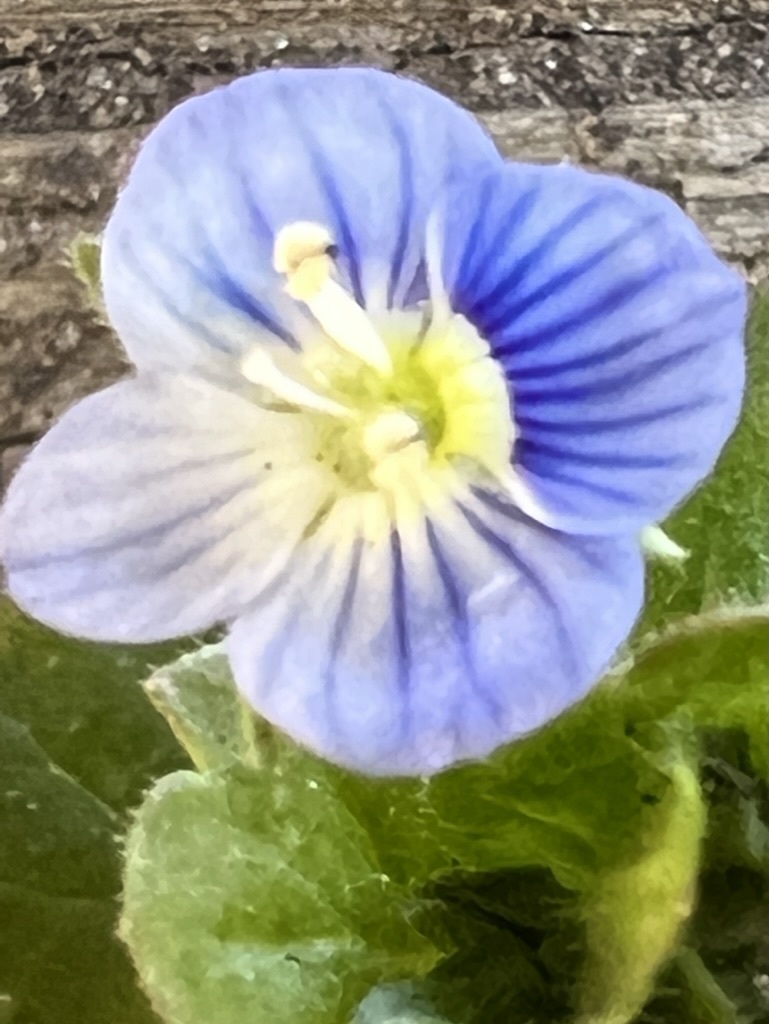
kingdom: Plantae
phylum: Tracheophyta
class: Magnoliopsida
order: Lamiales
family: Plantaginaceae
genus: Veronica
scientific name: Veronica persica
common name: Common field-speedwell
